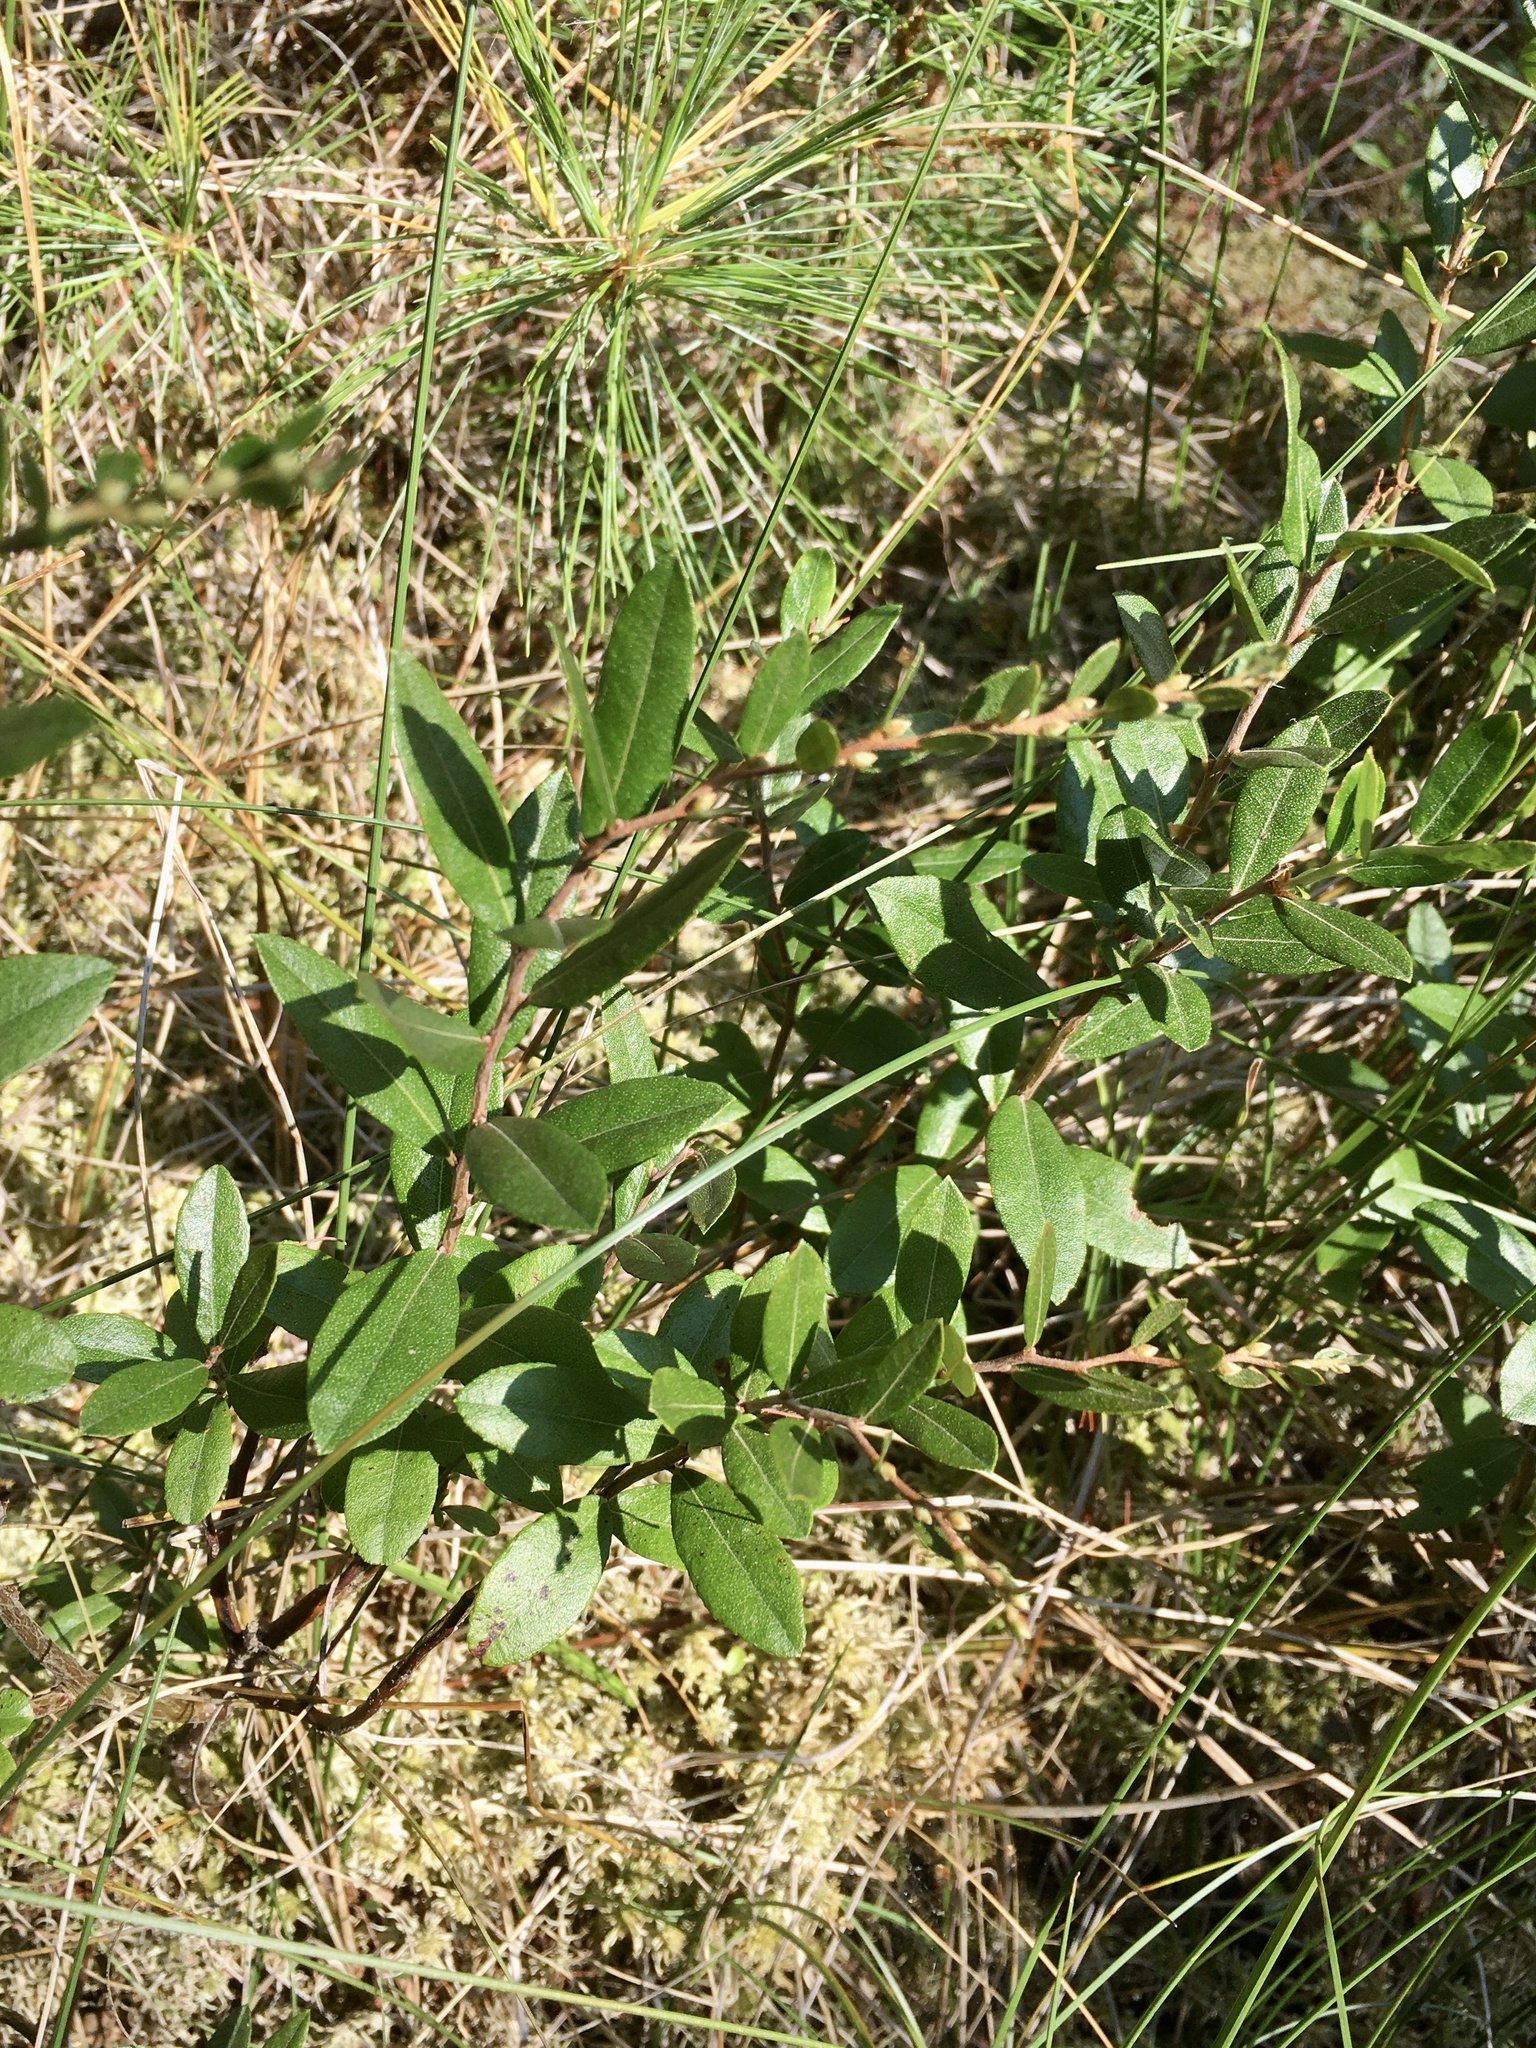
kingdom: Plantae
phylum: Tracheophyta
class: Magnoliopsida
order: Ericales
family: Ericaceae
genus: Chamaedaphne
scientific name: Chamaedaphne calyculata
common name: Leatherleaf
